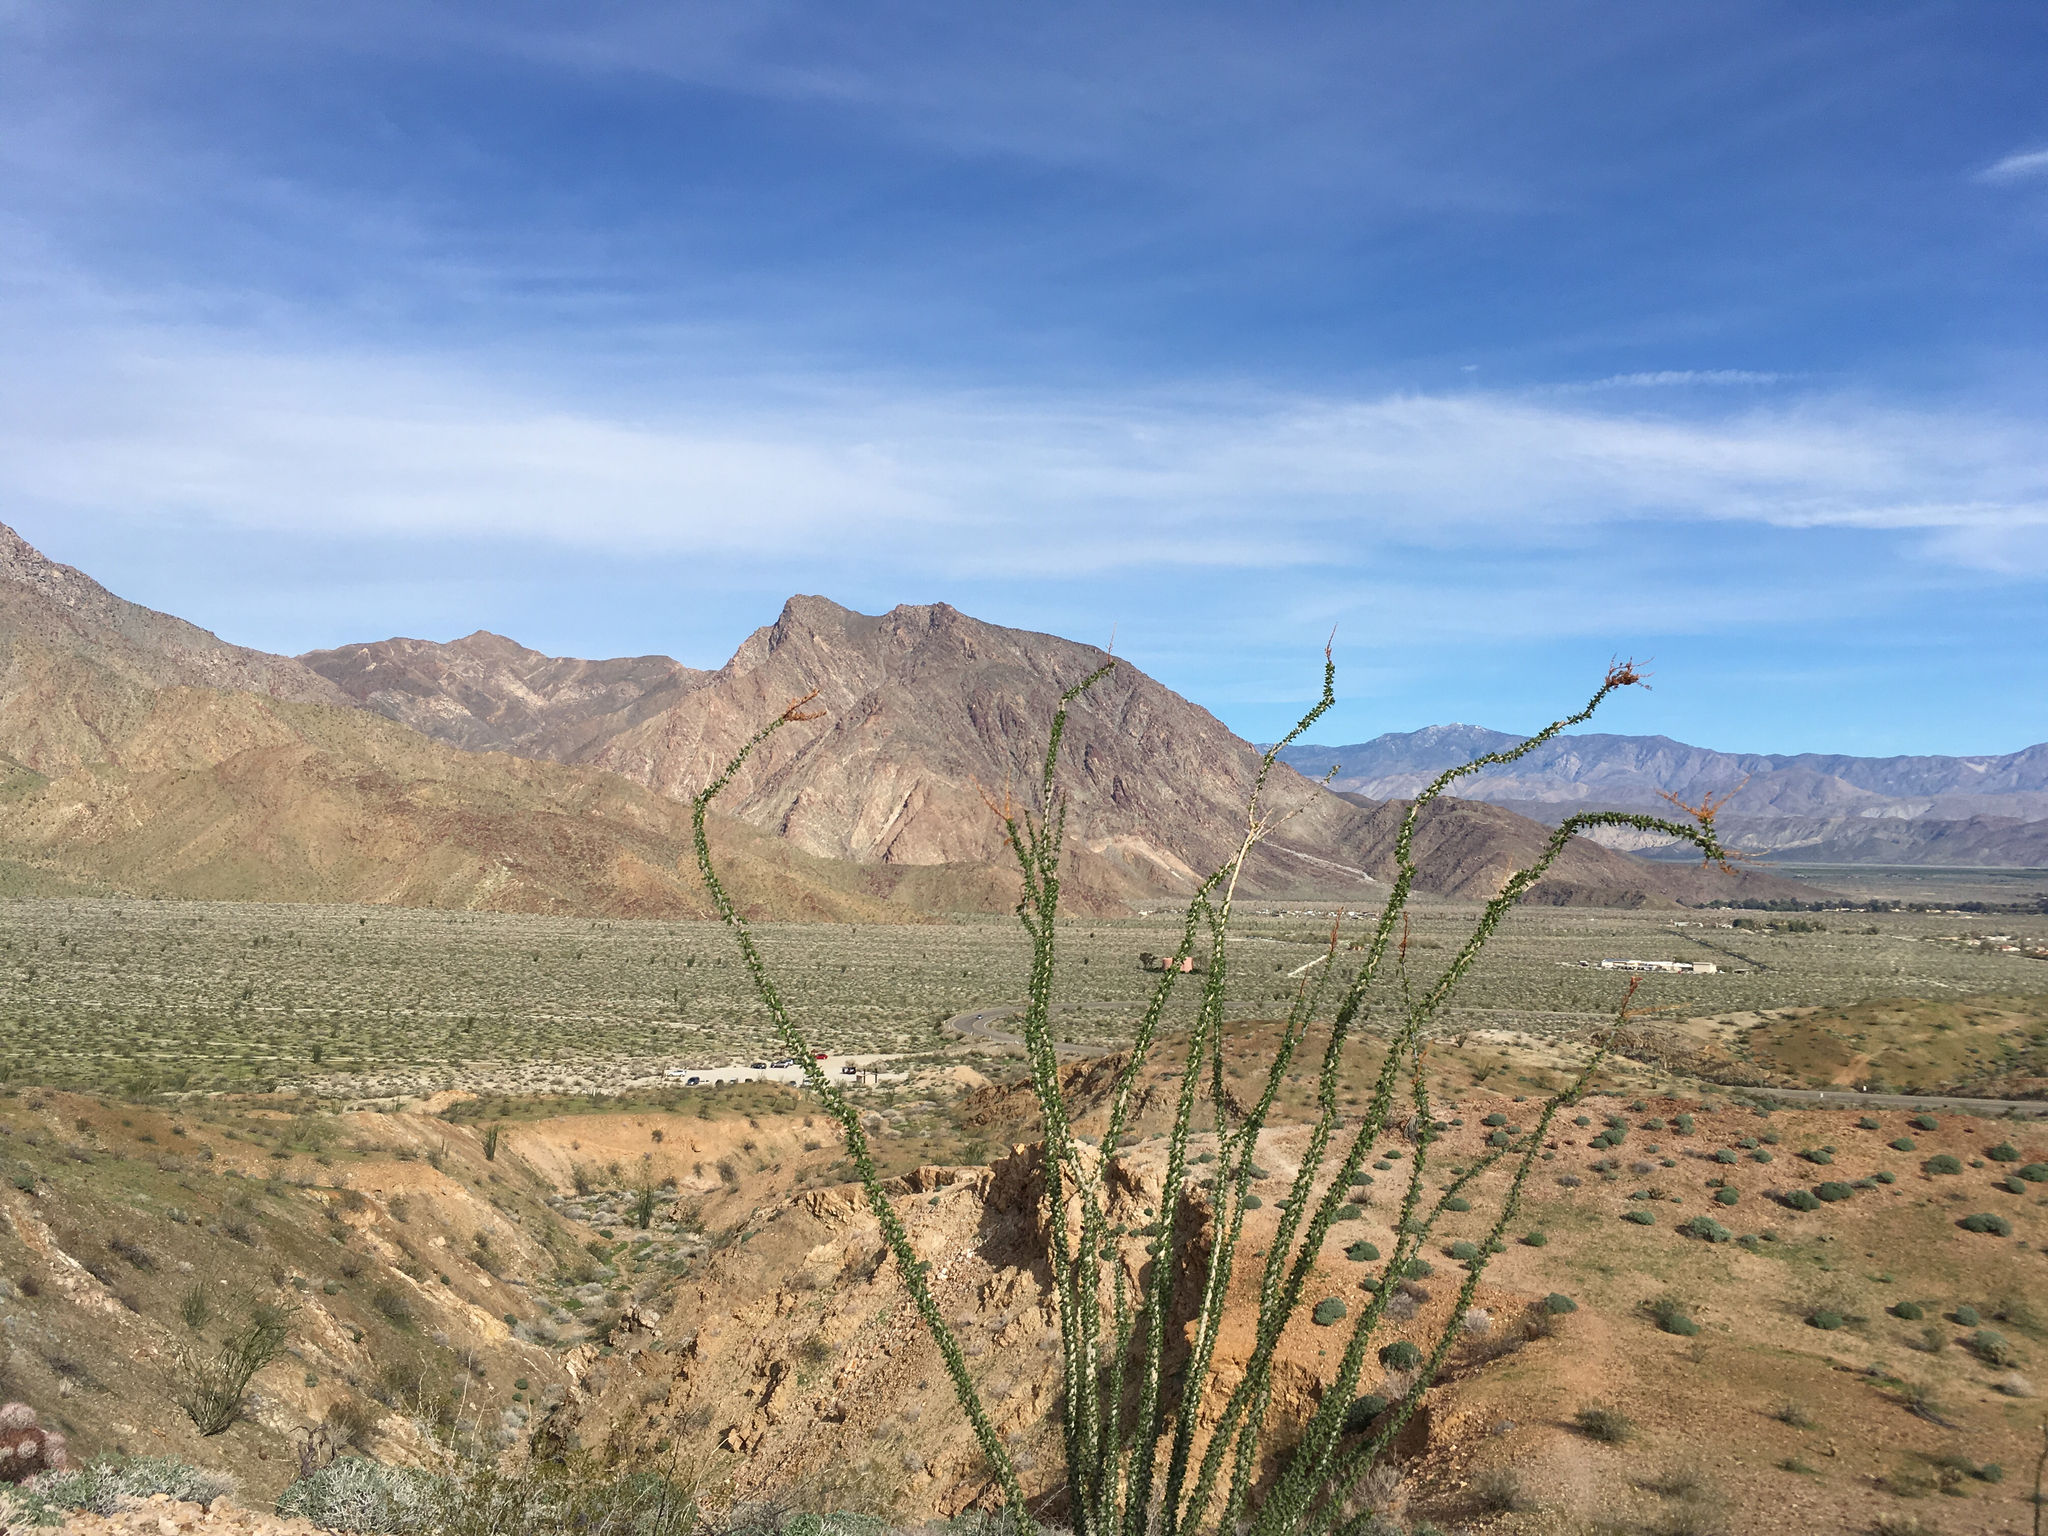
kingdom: Plantae
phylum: Tracheophyta
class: Magnoliopsida
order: Ericales
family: Fouquieriaceae
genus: Fouquieria
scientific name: Fouquieria splendens
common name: Vine-cactus
